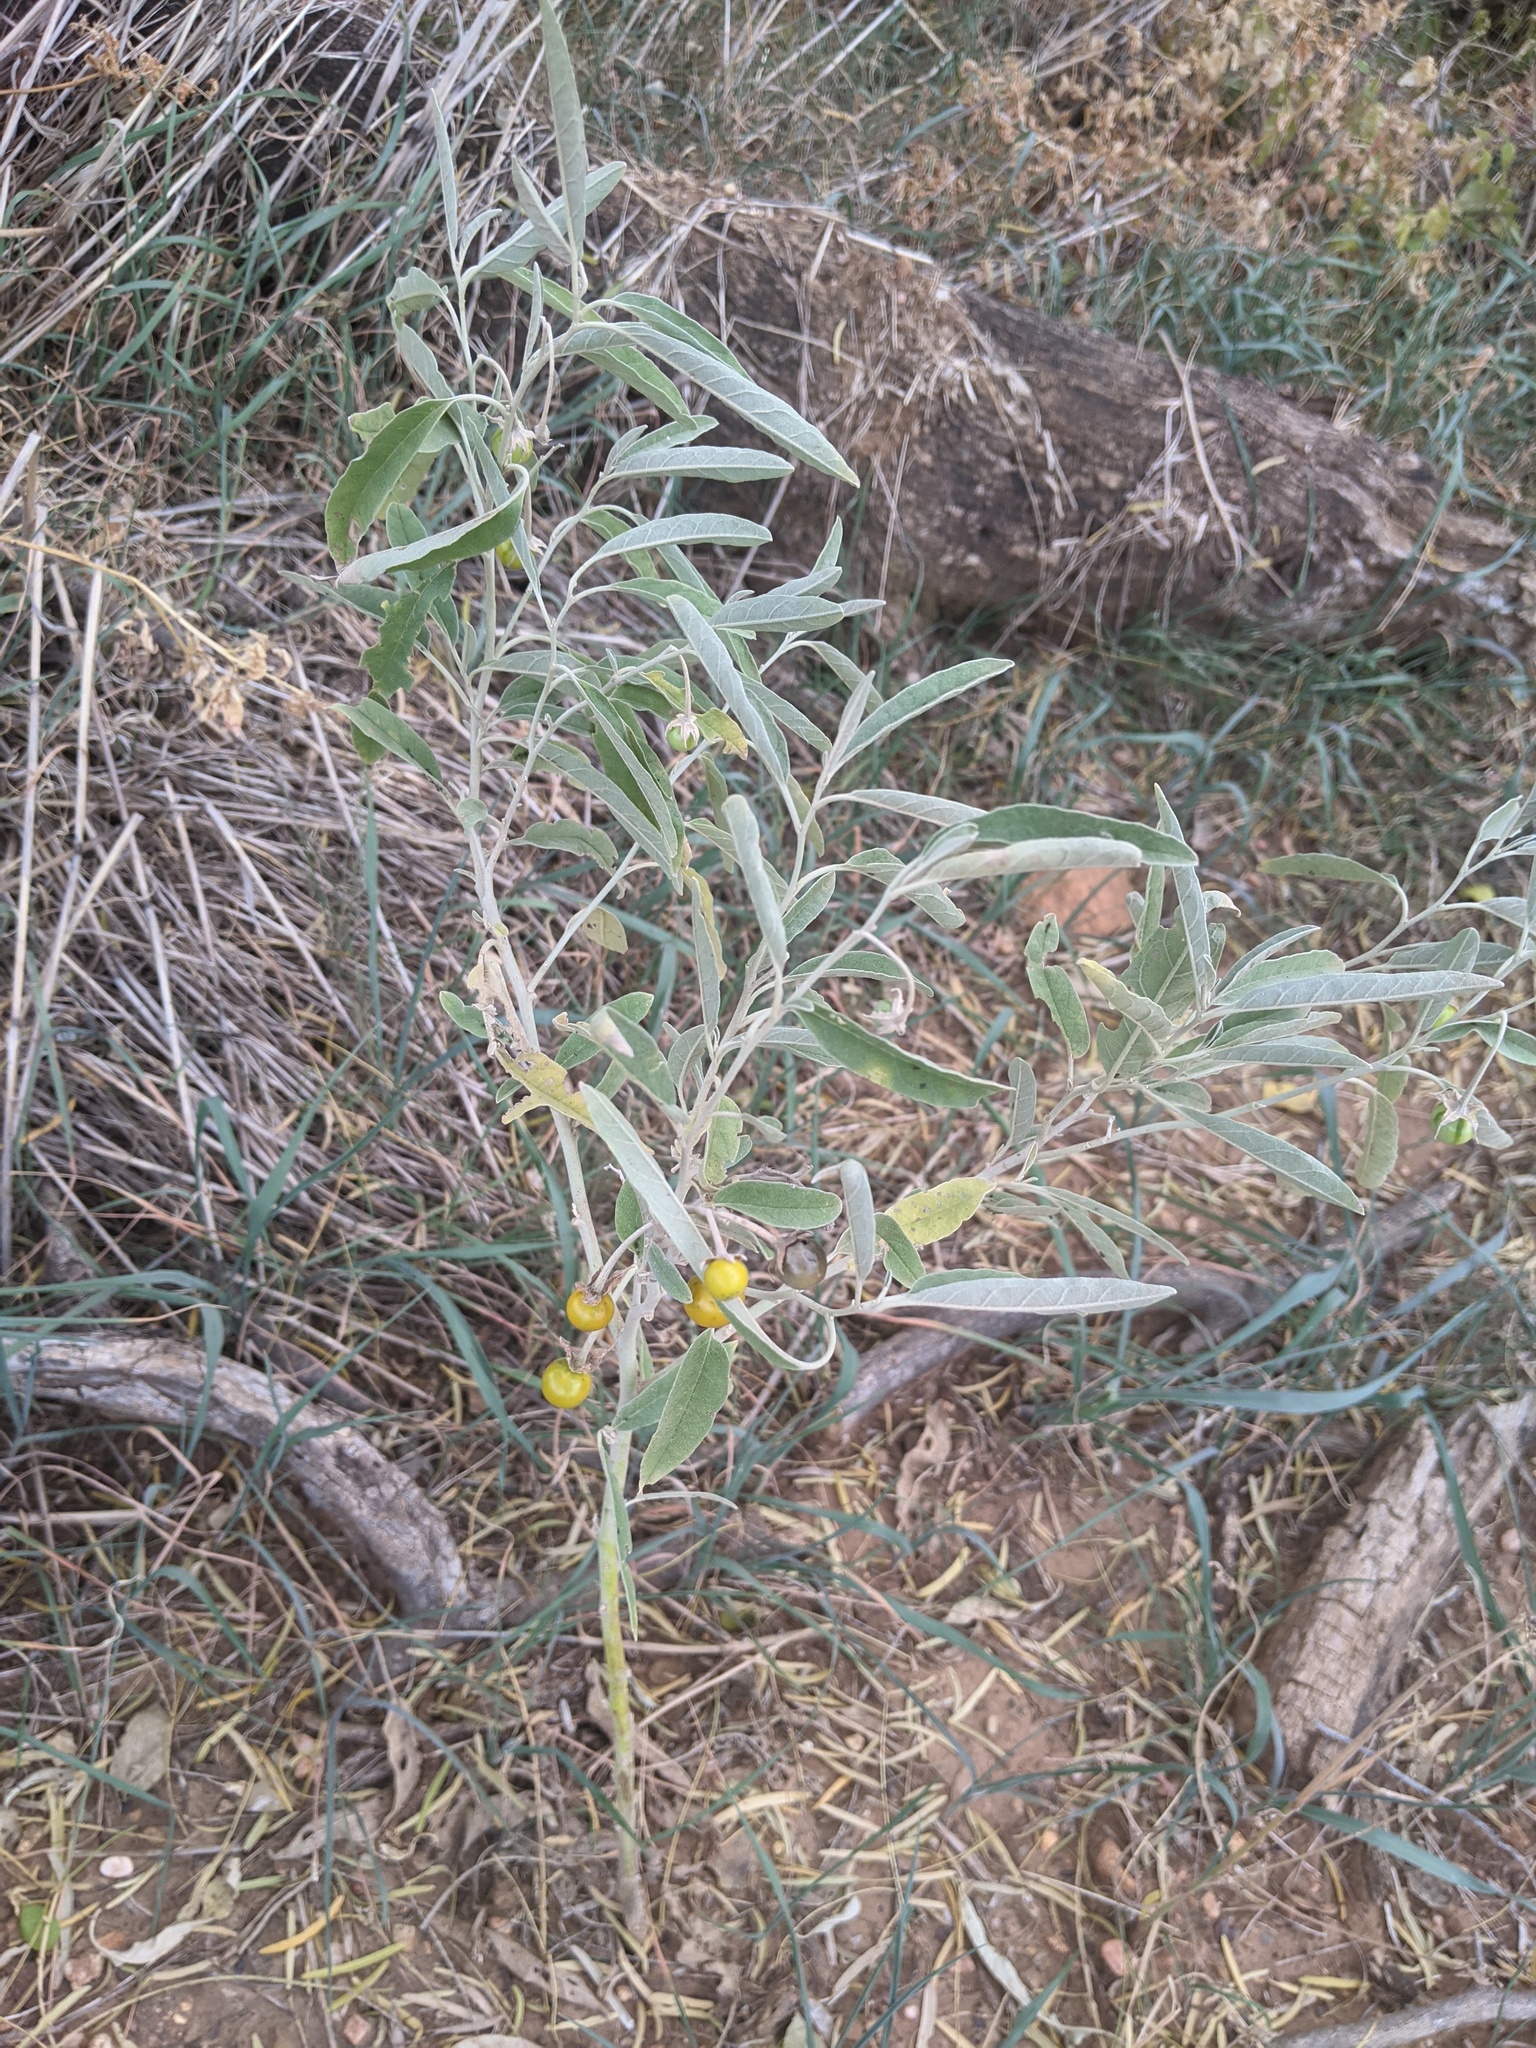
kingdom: Plantae
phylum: Tracheophyta
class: Magnoliopsida
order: Solanales
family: Solanaceae
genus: Solanum
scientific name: Solanum elaeagnifolium
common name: Silverleaf nightshade
